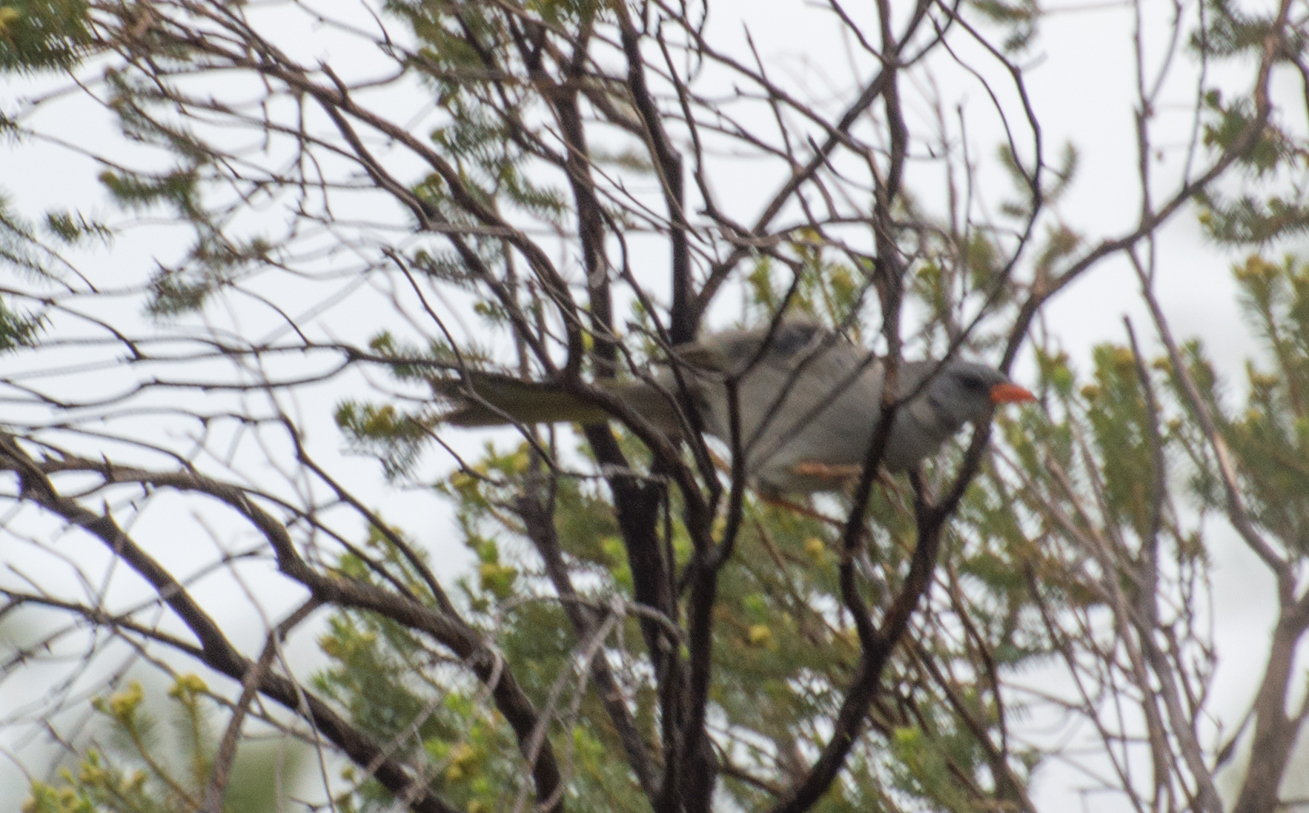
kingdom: Animalia
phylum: Chordata
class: Aves
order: Passeriformes
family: Thraupidae
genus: Embernagra
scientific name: Embernagra platensis
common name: Pampa finch
